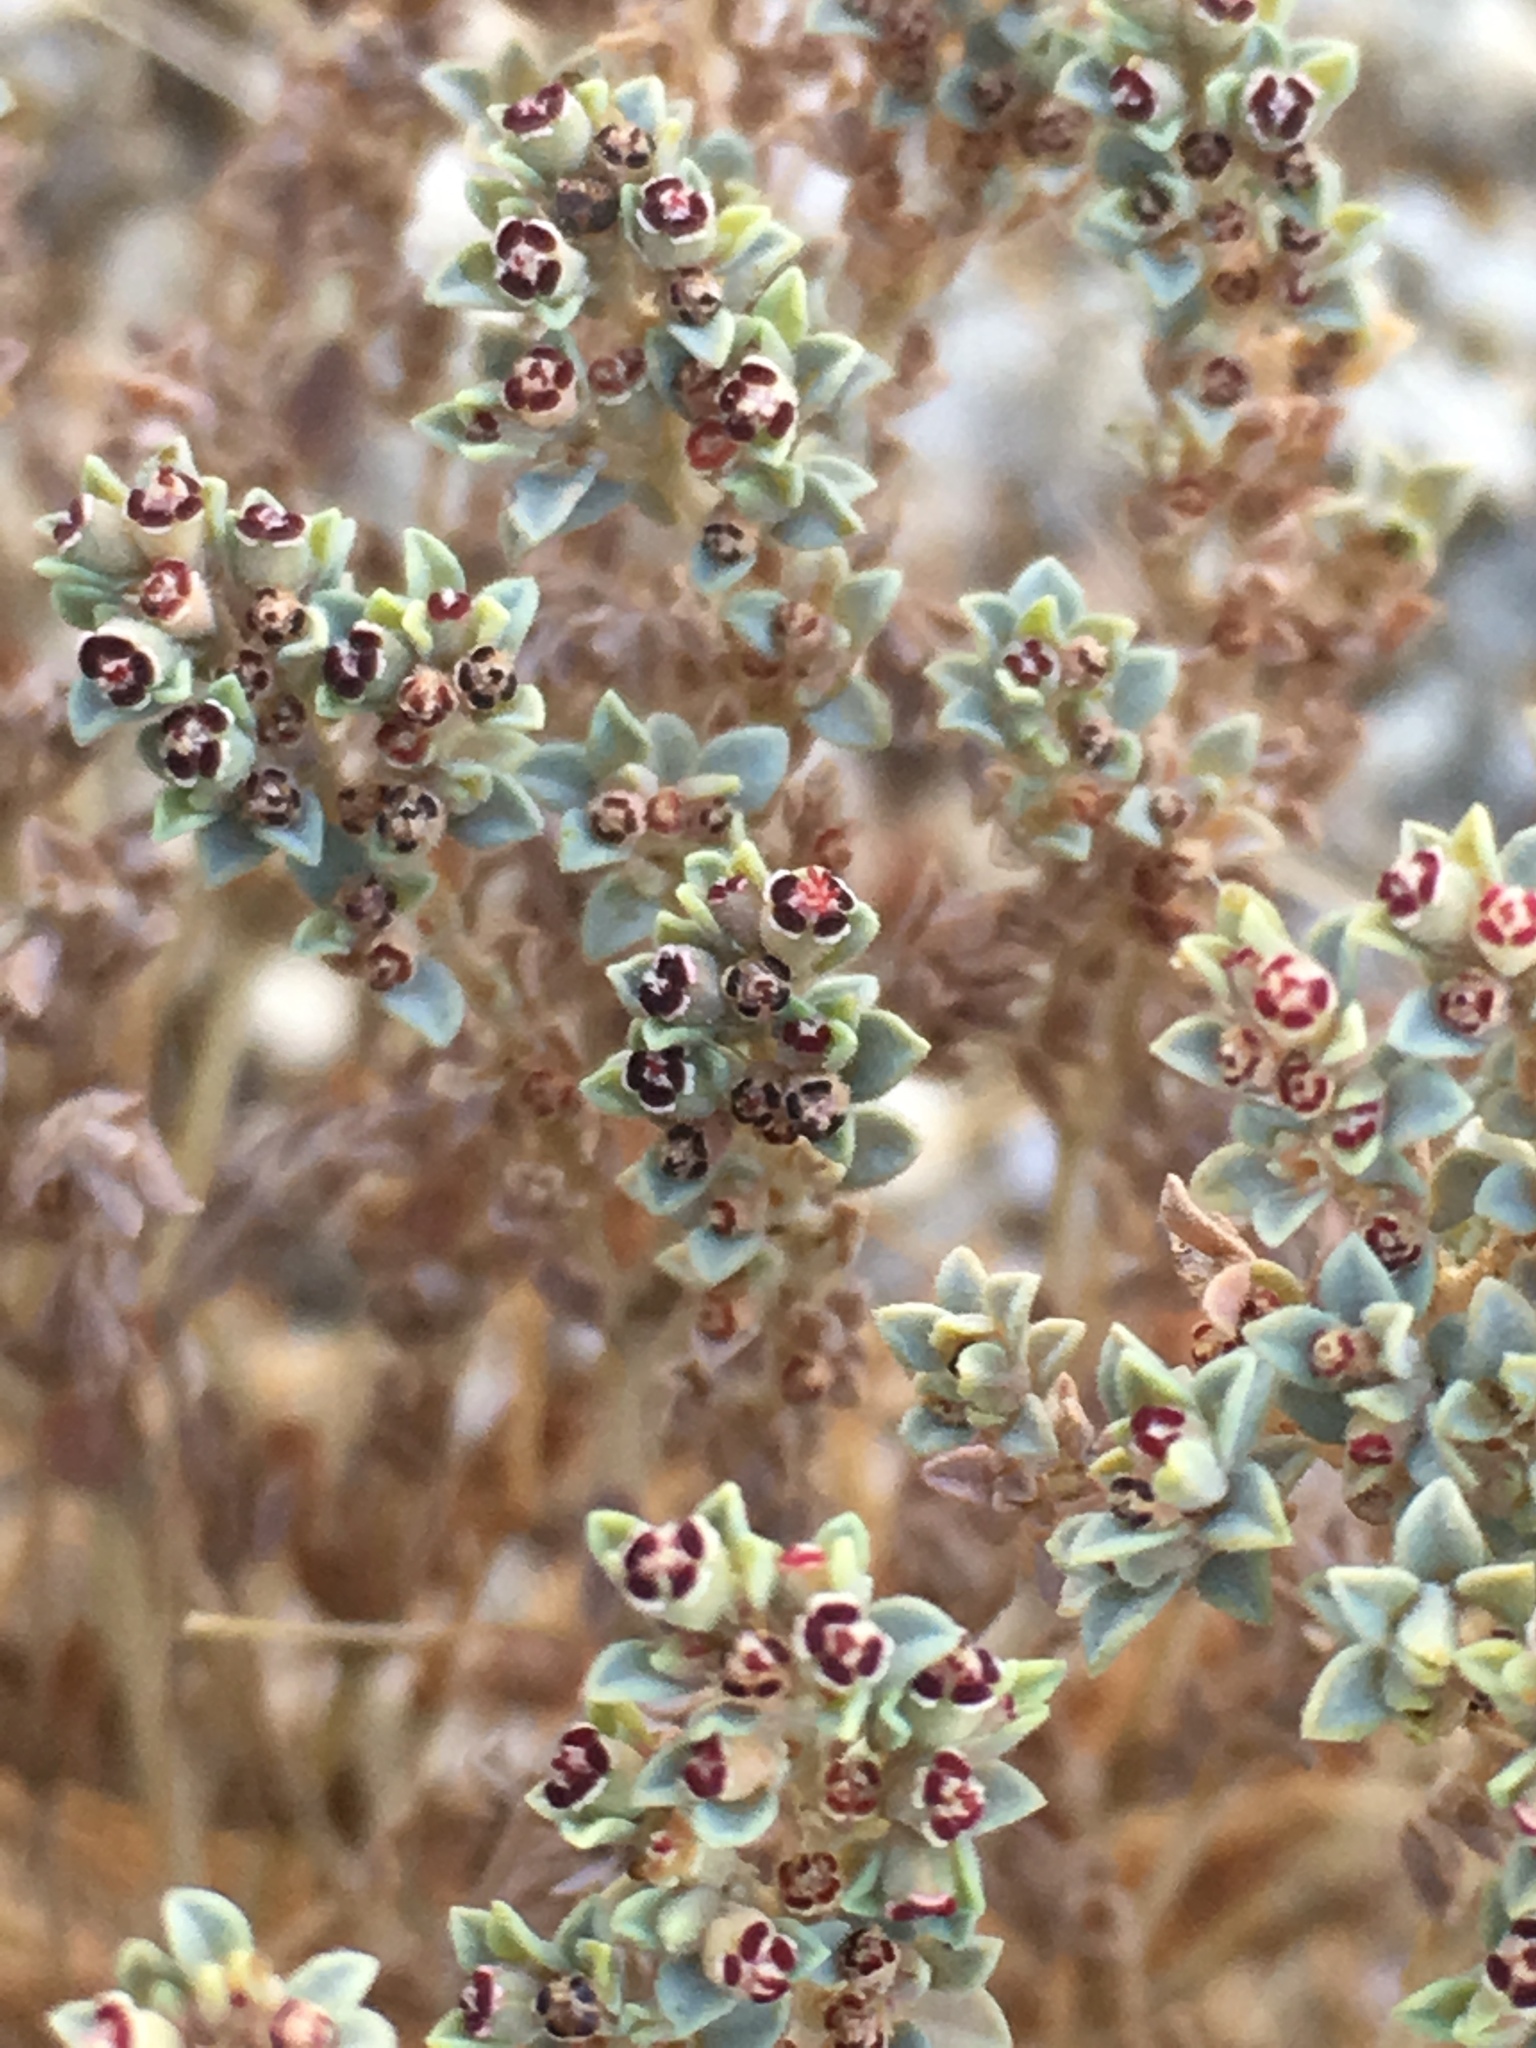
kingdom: Plantae
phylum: Tracheophyta
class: Magnoliopsida
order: Malpighiales
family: Euphorbiaceae
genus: Euphorbia
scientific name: Euphorbia polycarpa
